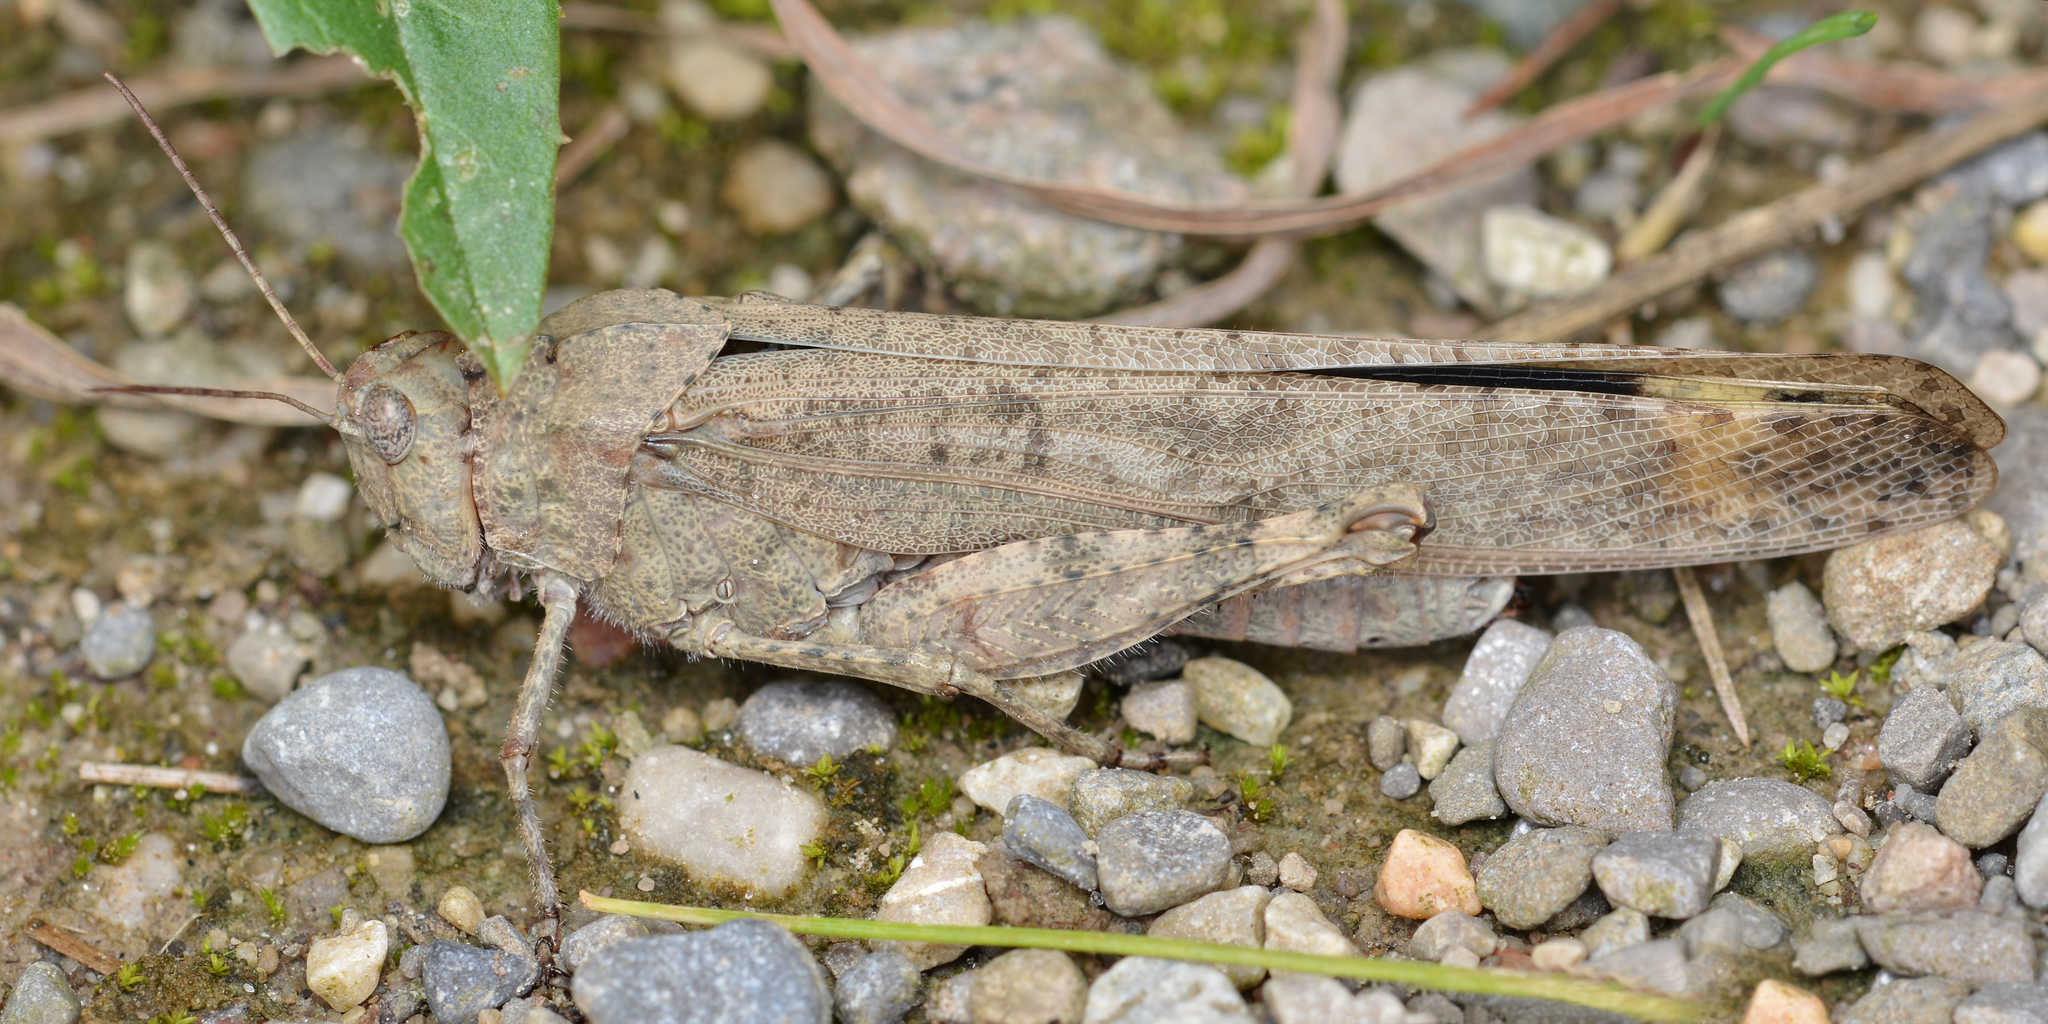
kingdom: Animalia
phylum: Arthropoda
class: Insecta
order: Orthoptera
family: Acrididae
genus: Dissosteira
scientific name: Dissosteira carolina
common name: Carolina grasshopper
